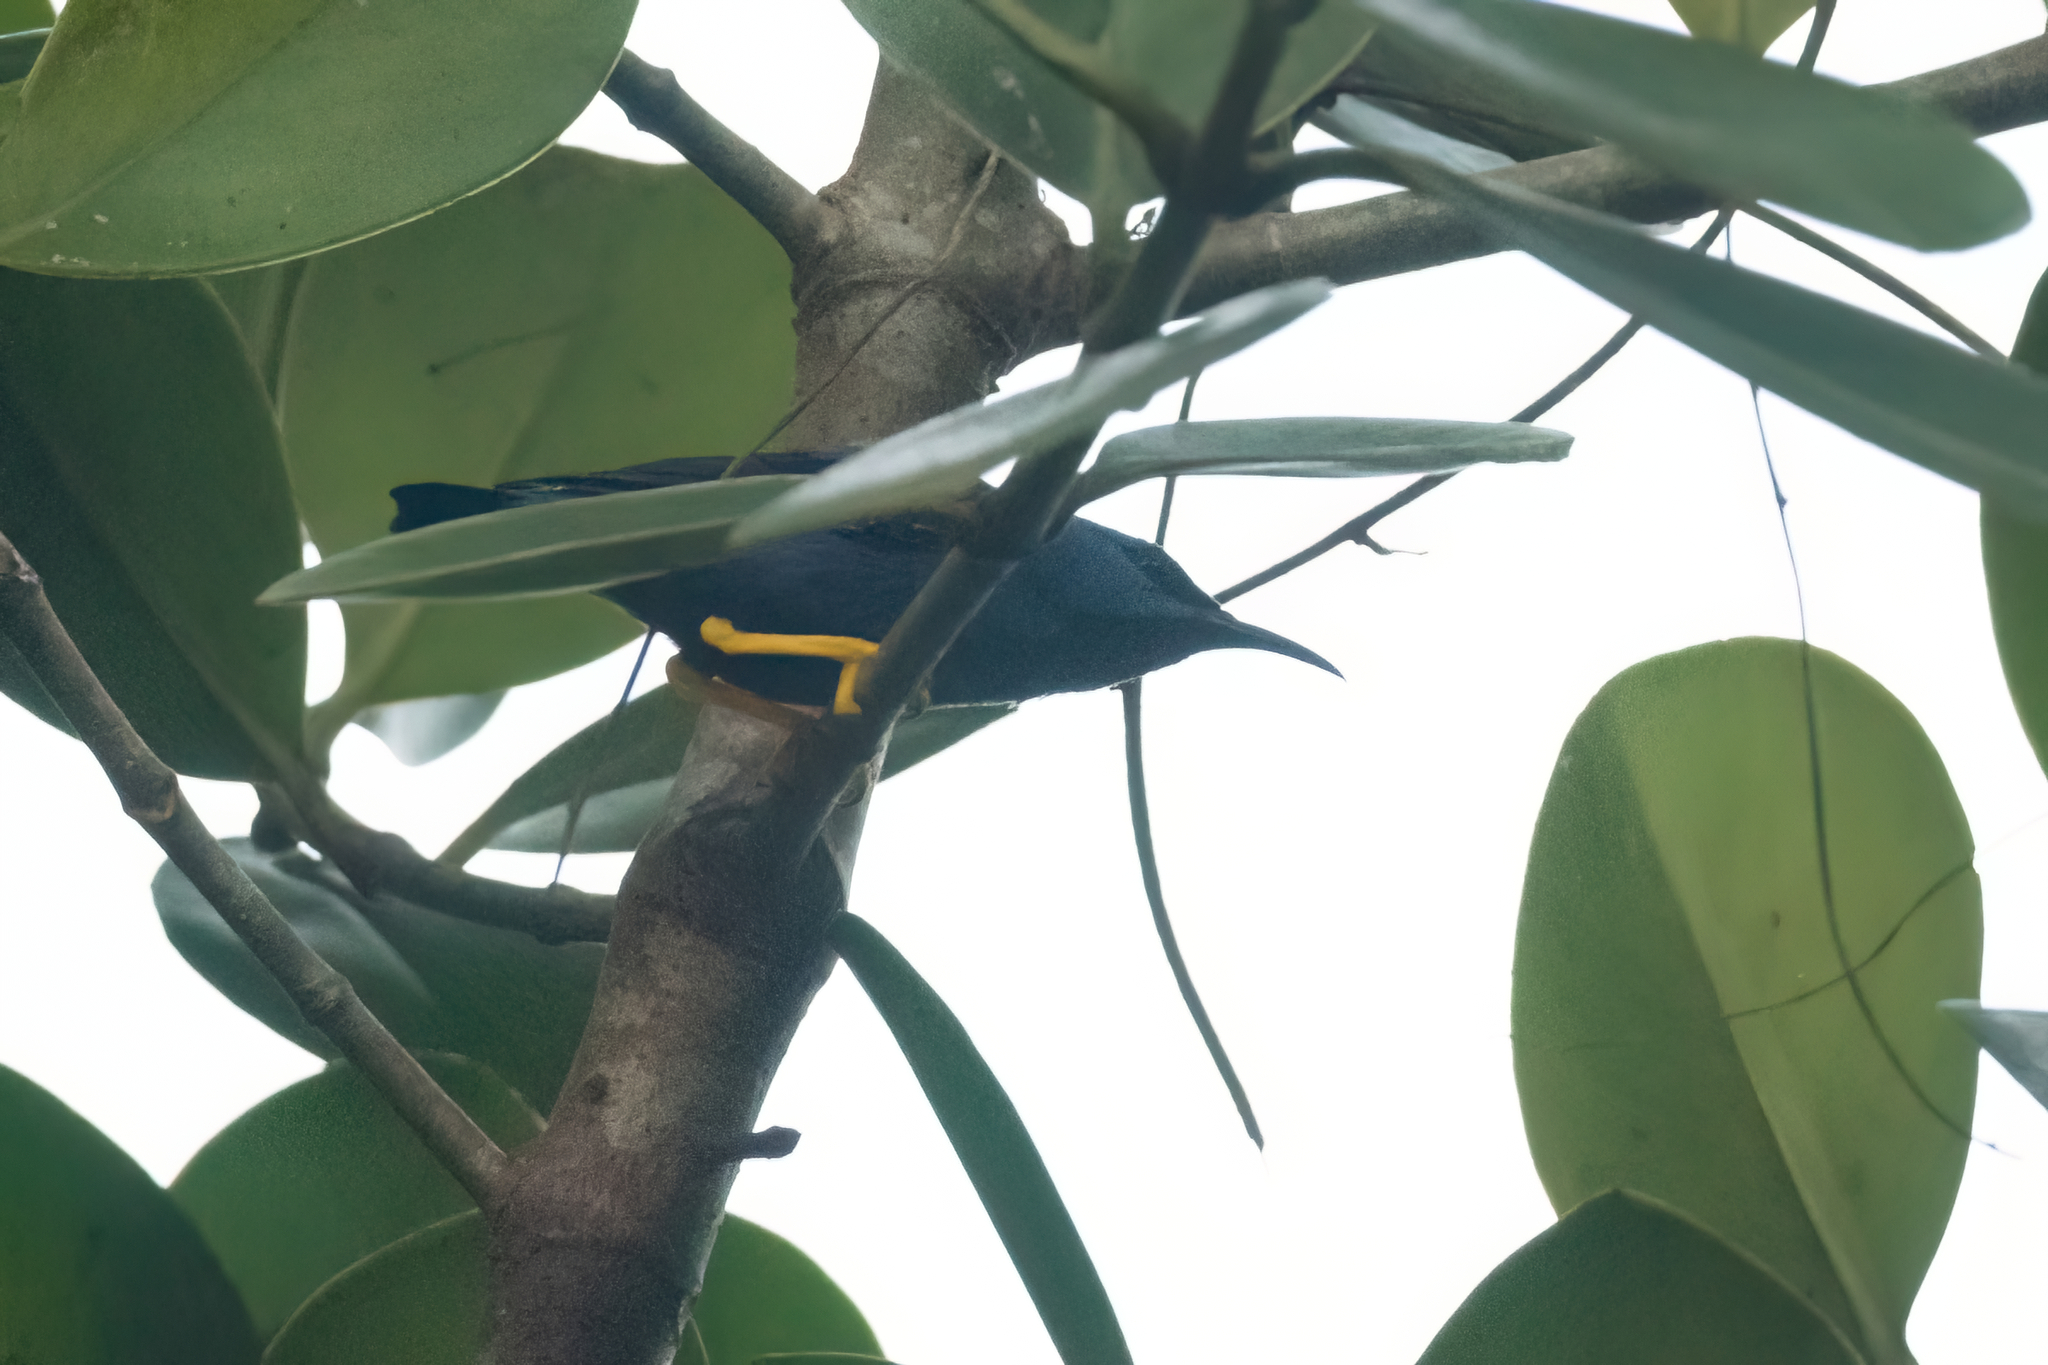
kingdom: Animalia
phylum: Chordata
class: Aves
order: Passeriformes
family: Thraupidae
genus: Cyanerpes
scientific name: Cyanerpes lucidus
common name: Shining honeycreeper
